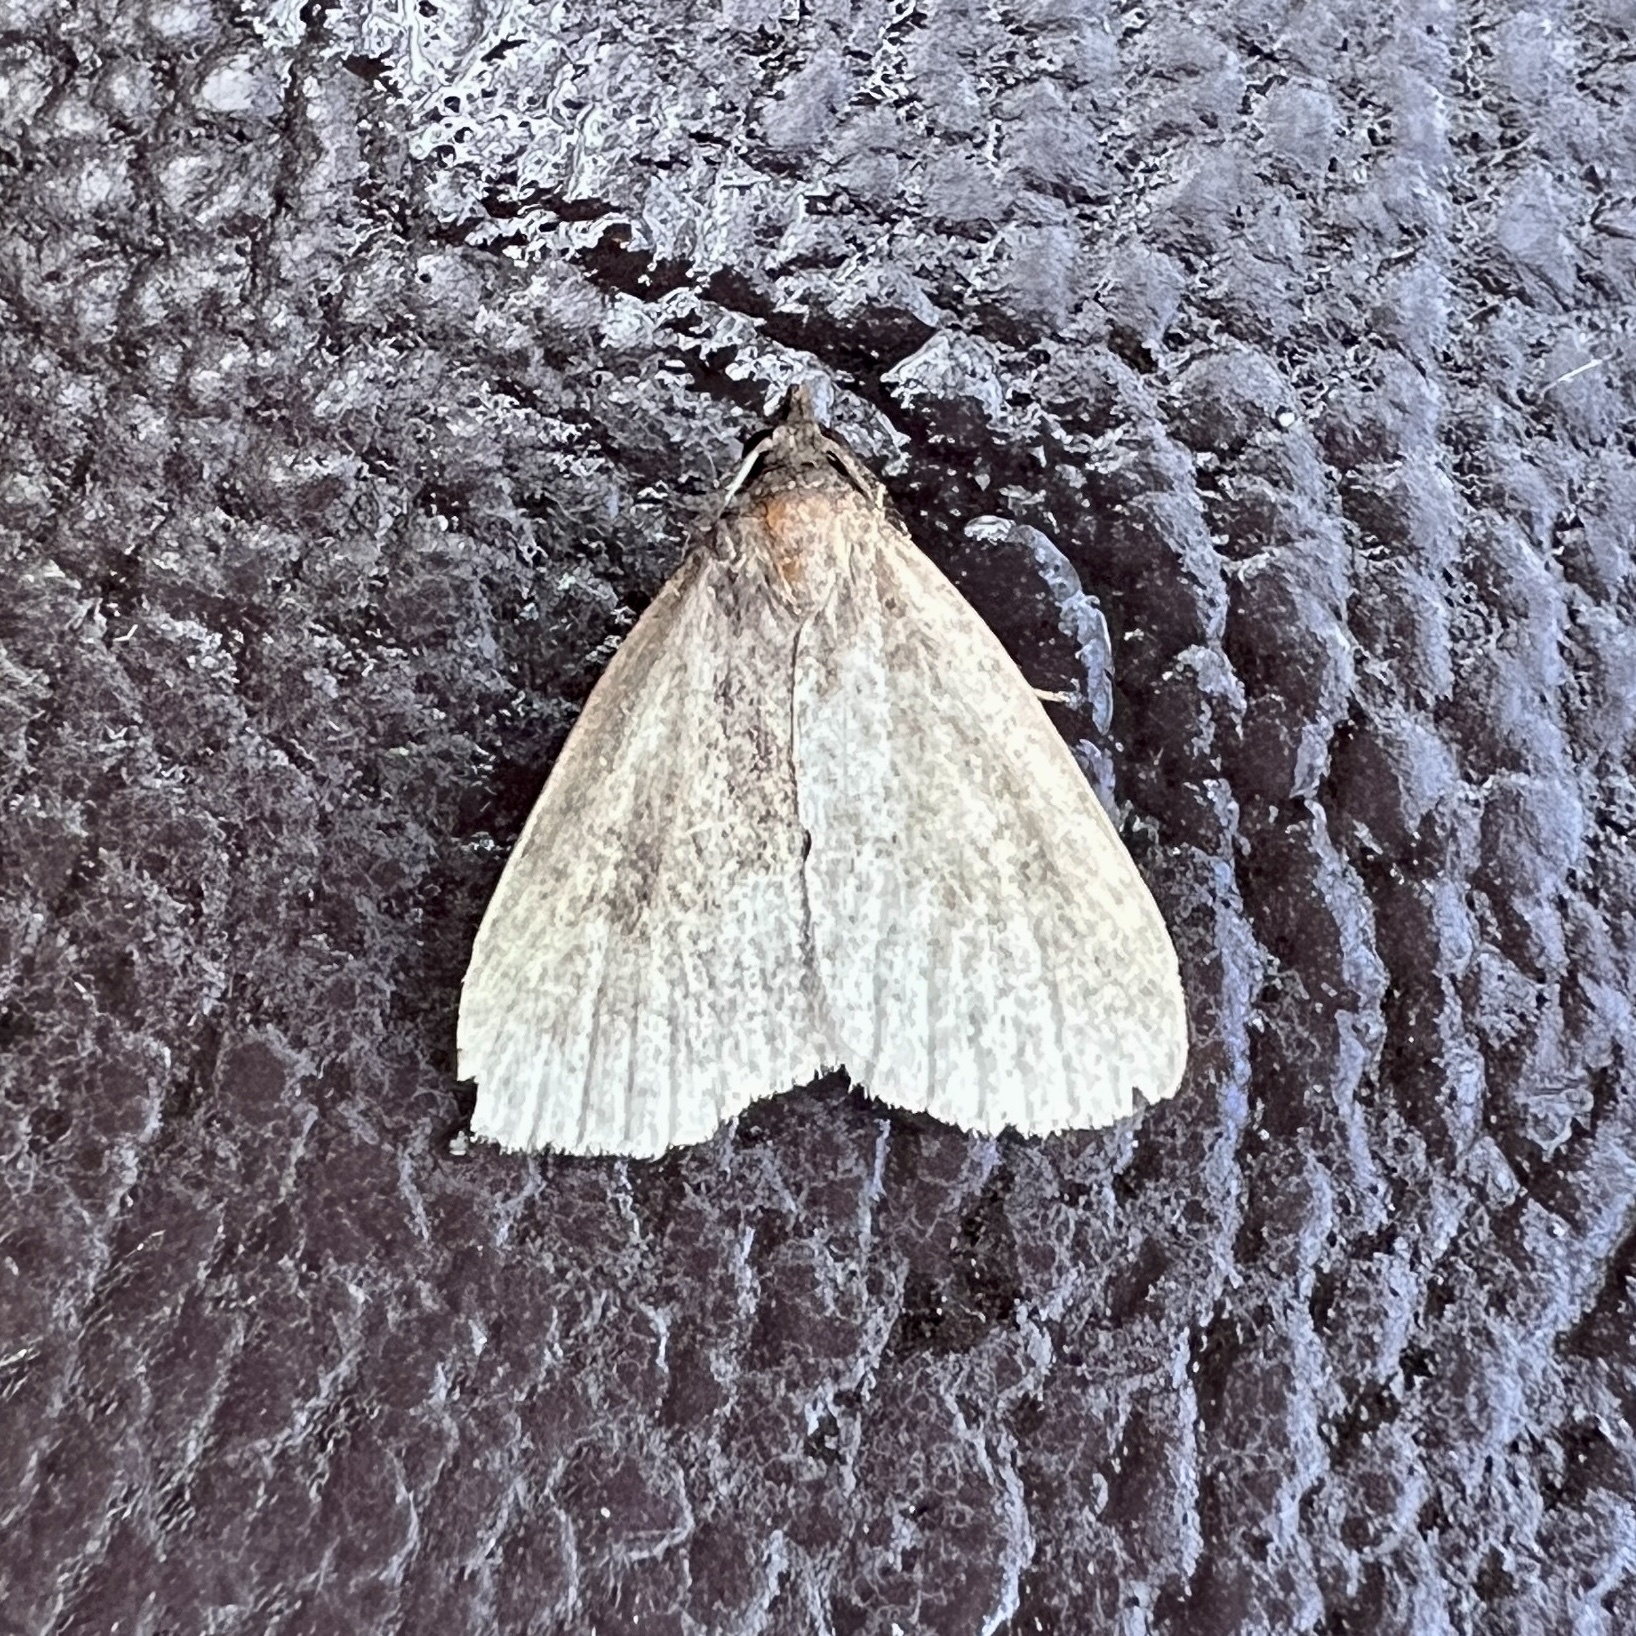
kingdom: Animalia
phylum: Arthropoda
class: Insecta
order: Lepidoptera
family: Noctuidae
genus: Protodeltote
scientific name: Protodeltote albidula
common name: Pale glyph
